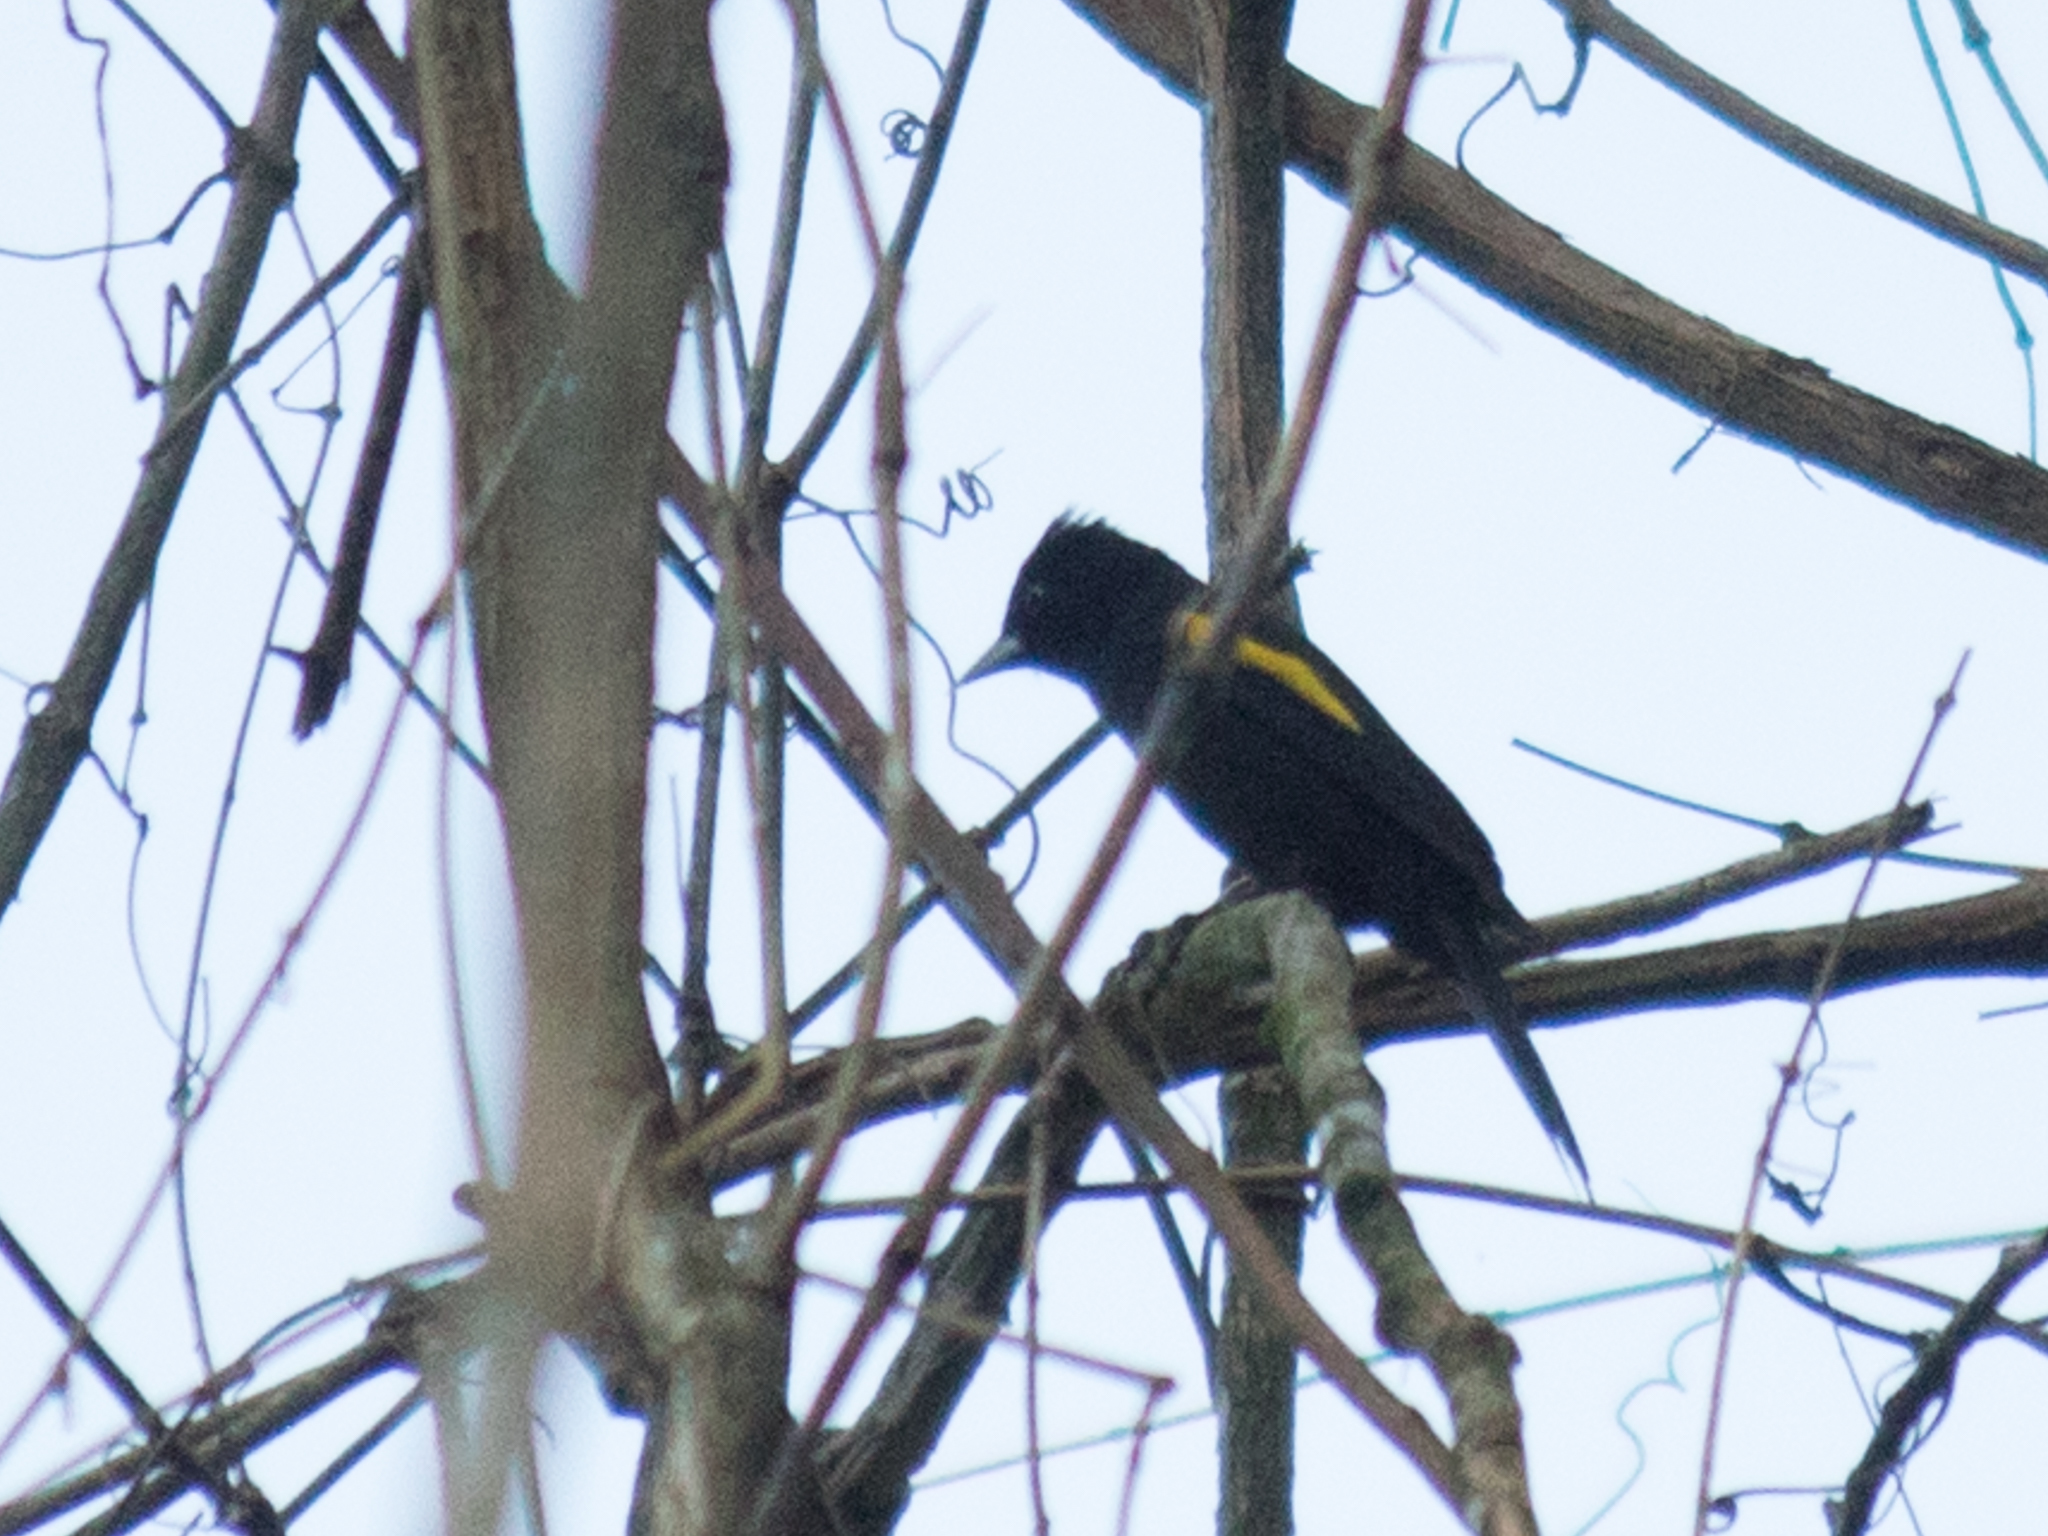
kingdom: Animalia
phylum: Chordata
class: Aves
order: Passeriformes
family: Icteridae
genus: Cacicus
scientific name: Cacicus chrysopterus
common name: Golden-winged cacique
